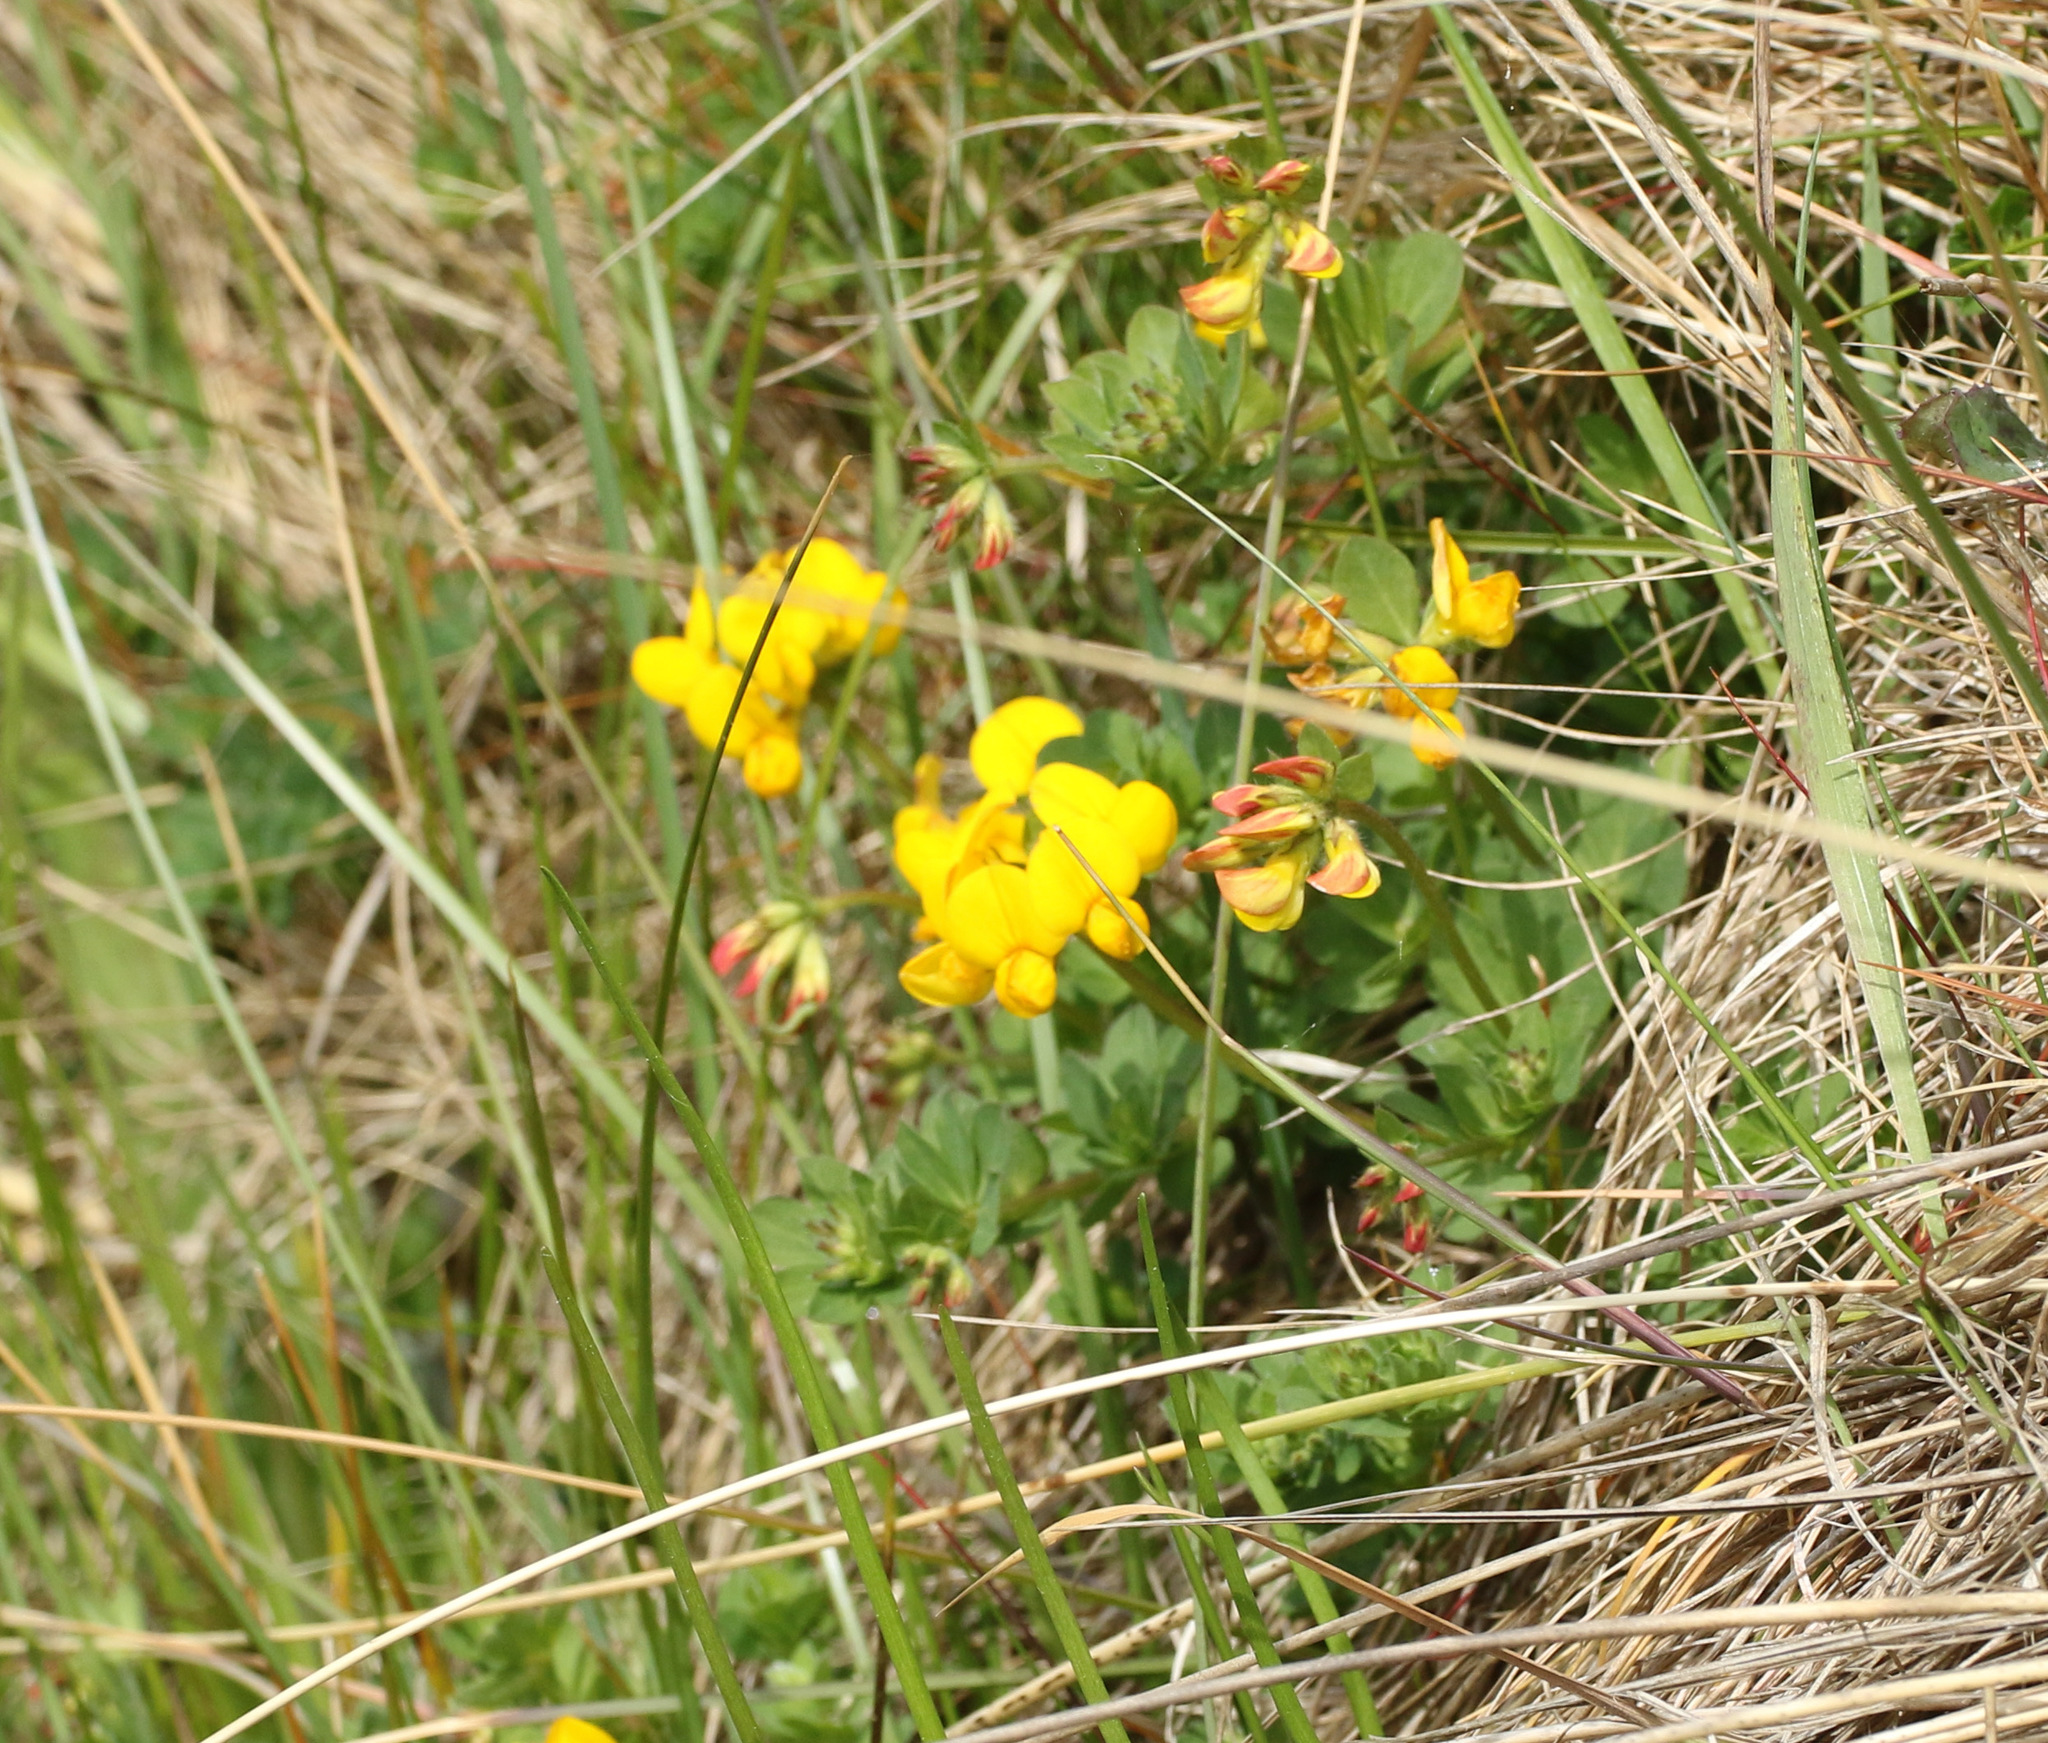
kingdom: Plantae
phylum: Tracheophyta
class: Magnoliopsida
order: Fabales
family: Fabaceae
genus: Lotus
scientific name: Lotus corniculatus
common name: Common bird's-foot-trefoil
